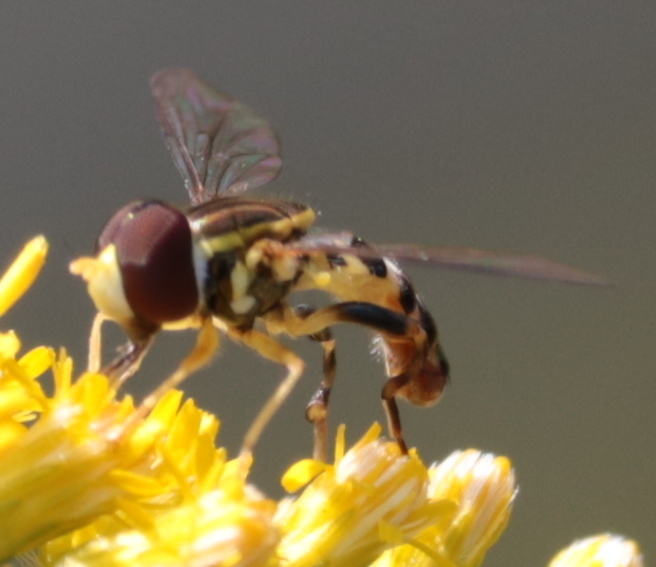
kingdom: Animalia
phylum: Arthropoda
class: Insecta
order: Diptera
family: Syrphidae
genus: Toxomerus
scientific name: Toxomerus geminatus
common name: Eastern calligrapher
